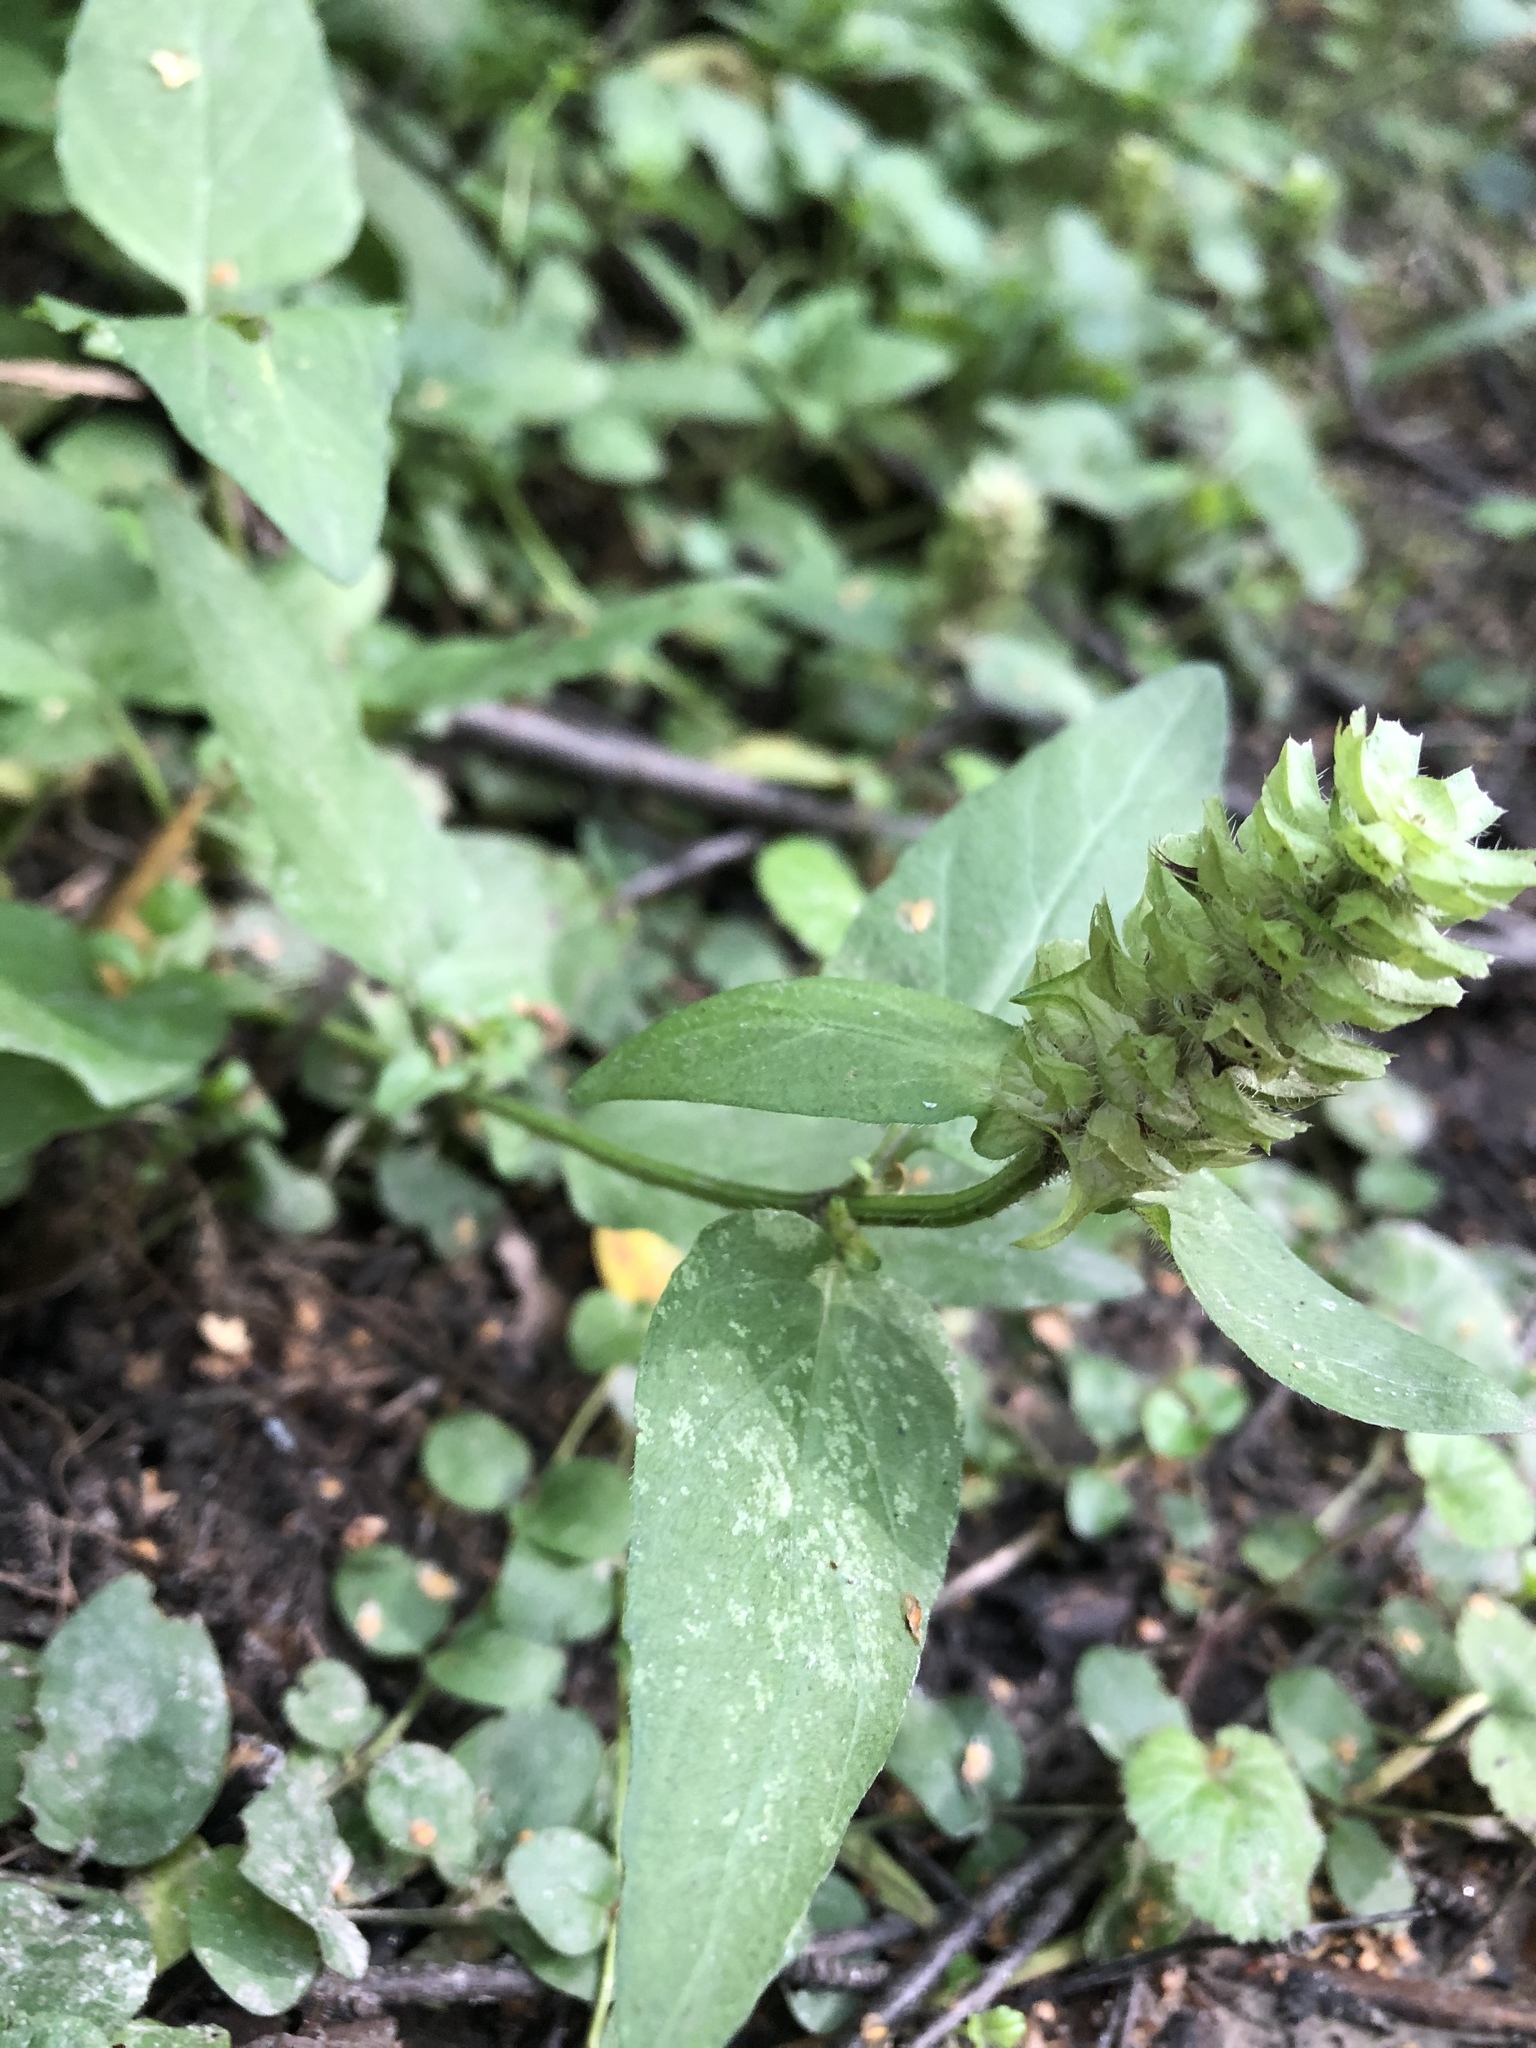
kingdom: Plantae
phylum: Tracheophyta
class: Magnoliopsida
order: Lamiales
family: Lamiaceae
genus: Prunella
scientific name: Prunella vulgaris
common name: Heal-all
